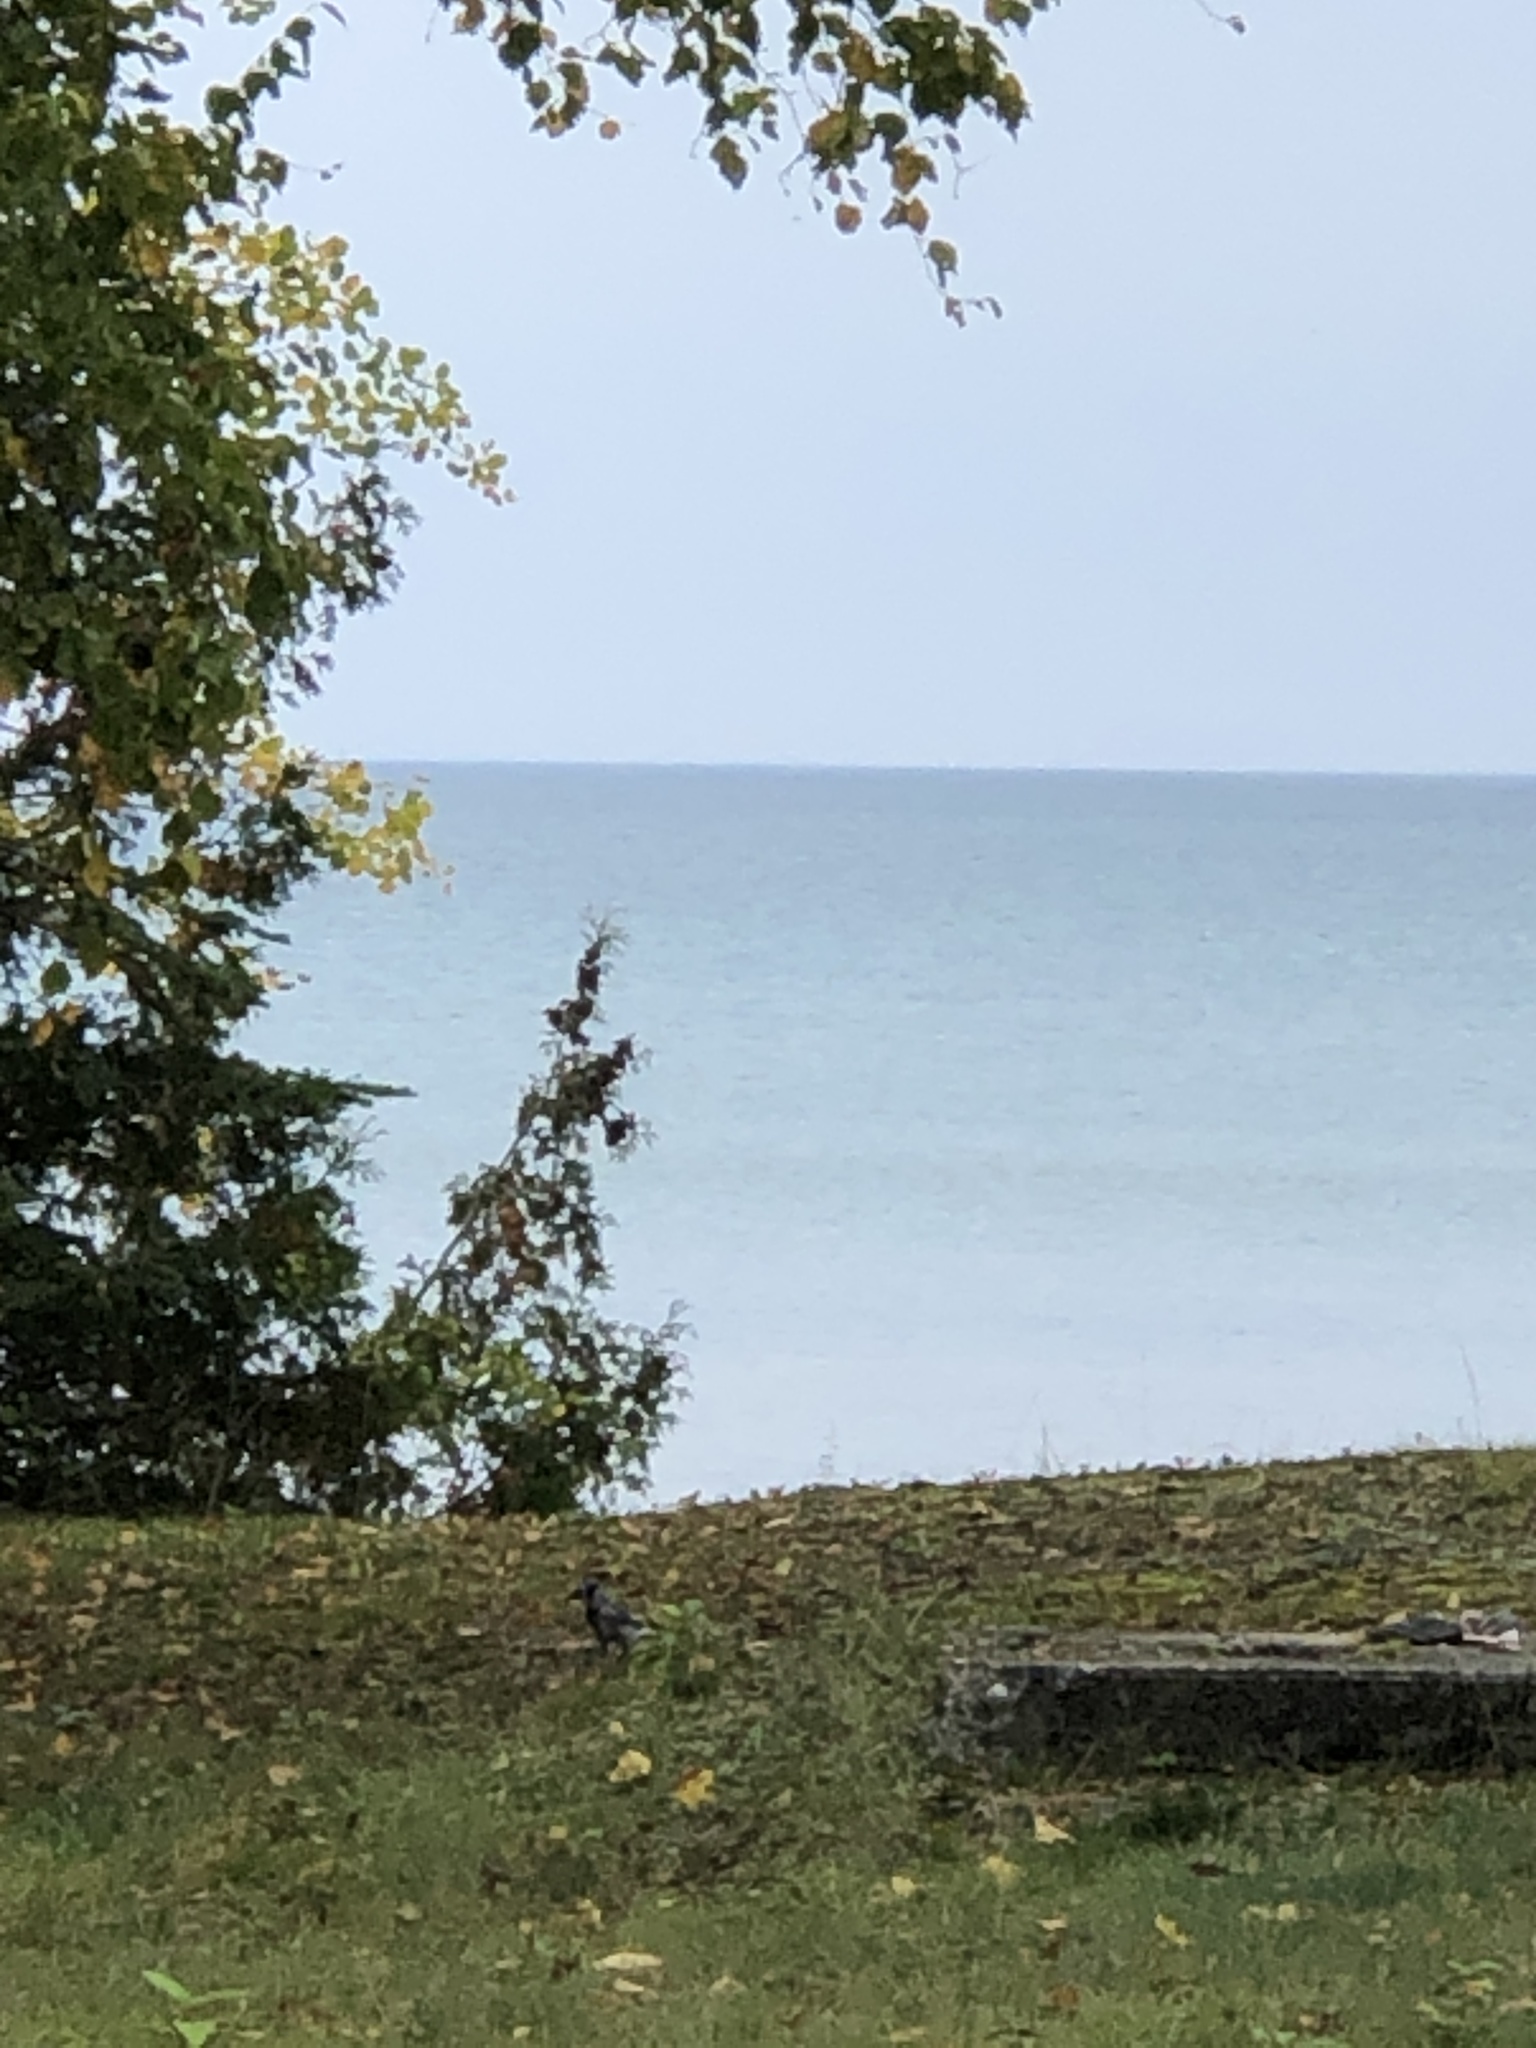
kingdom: Animalia
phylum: Chordata
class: Aves
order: Passeriformes
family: Corvidae
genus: Cyanocitta
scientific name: Cyanocitta cristata
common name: Blue jay
